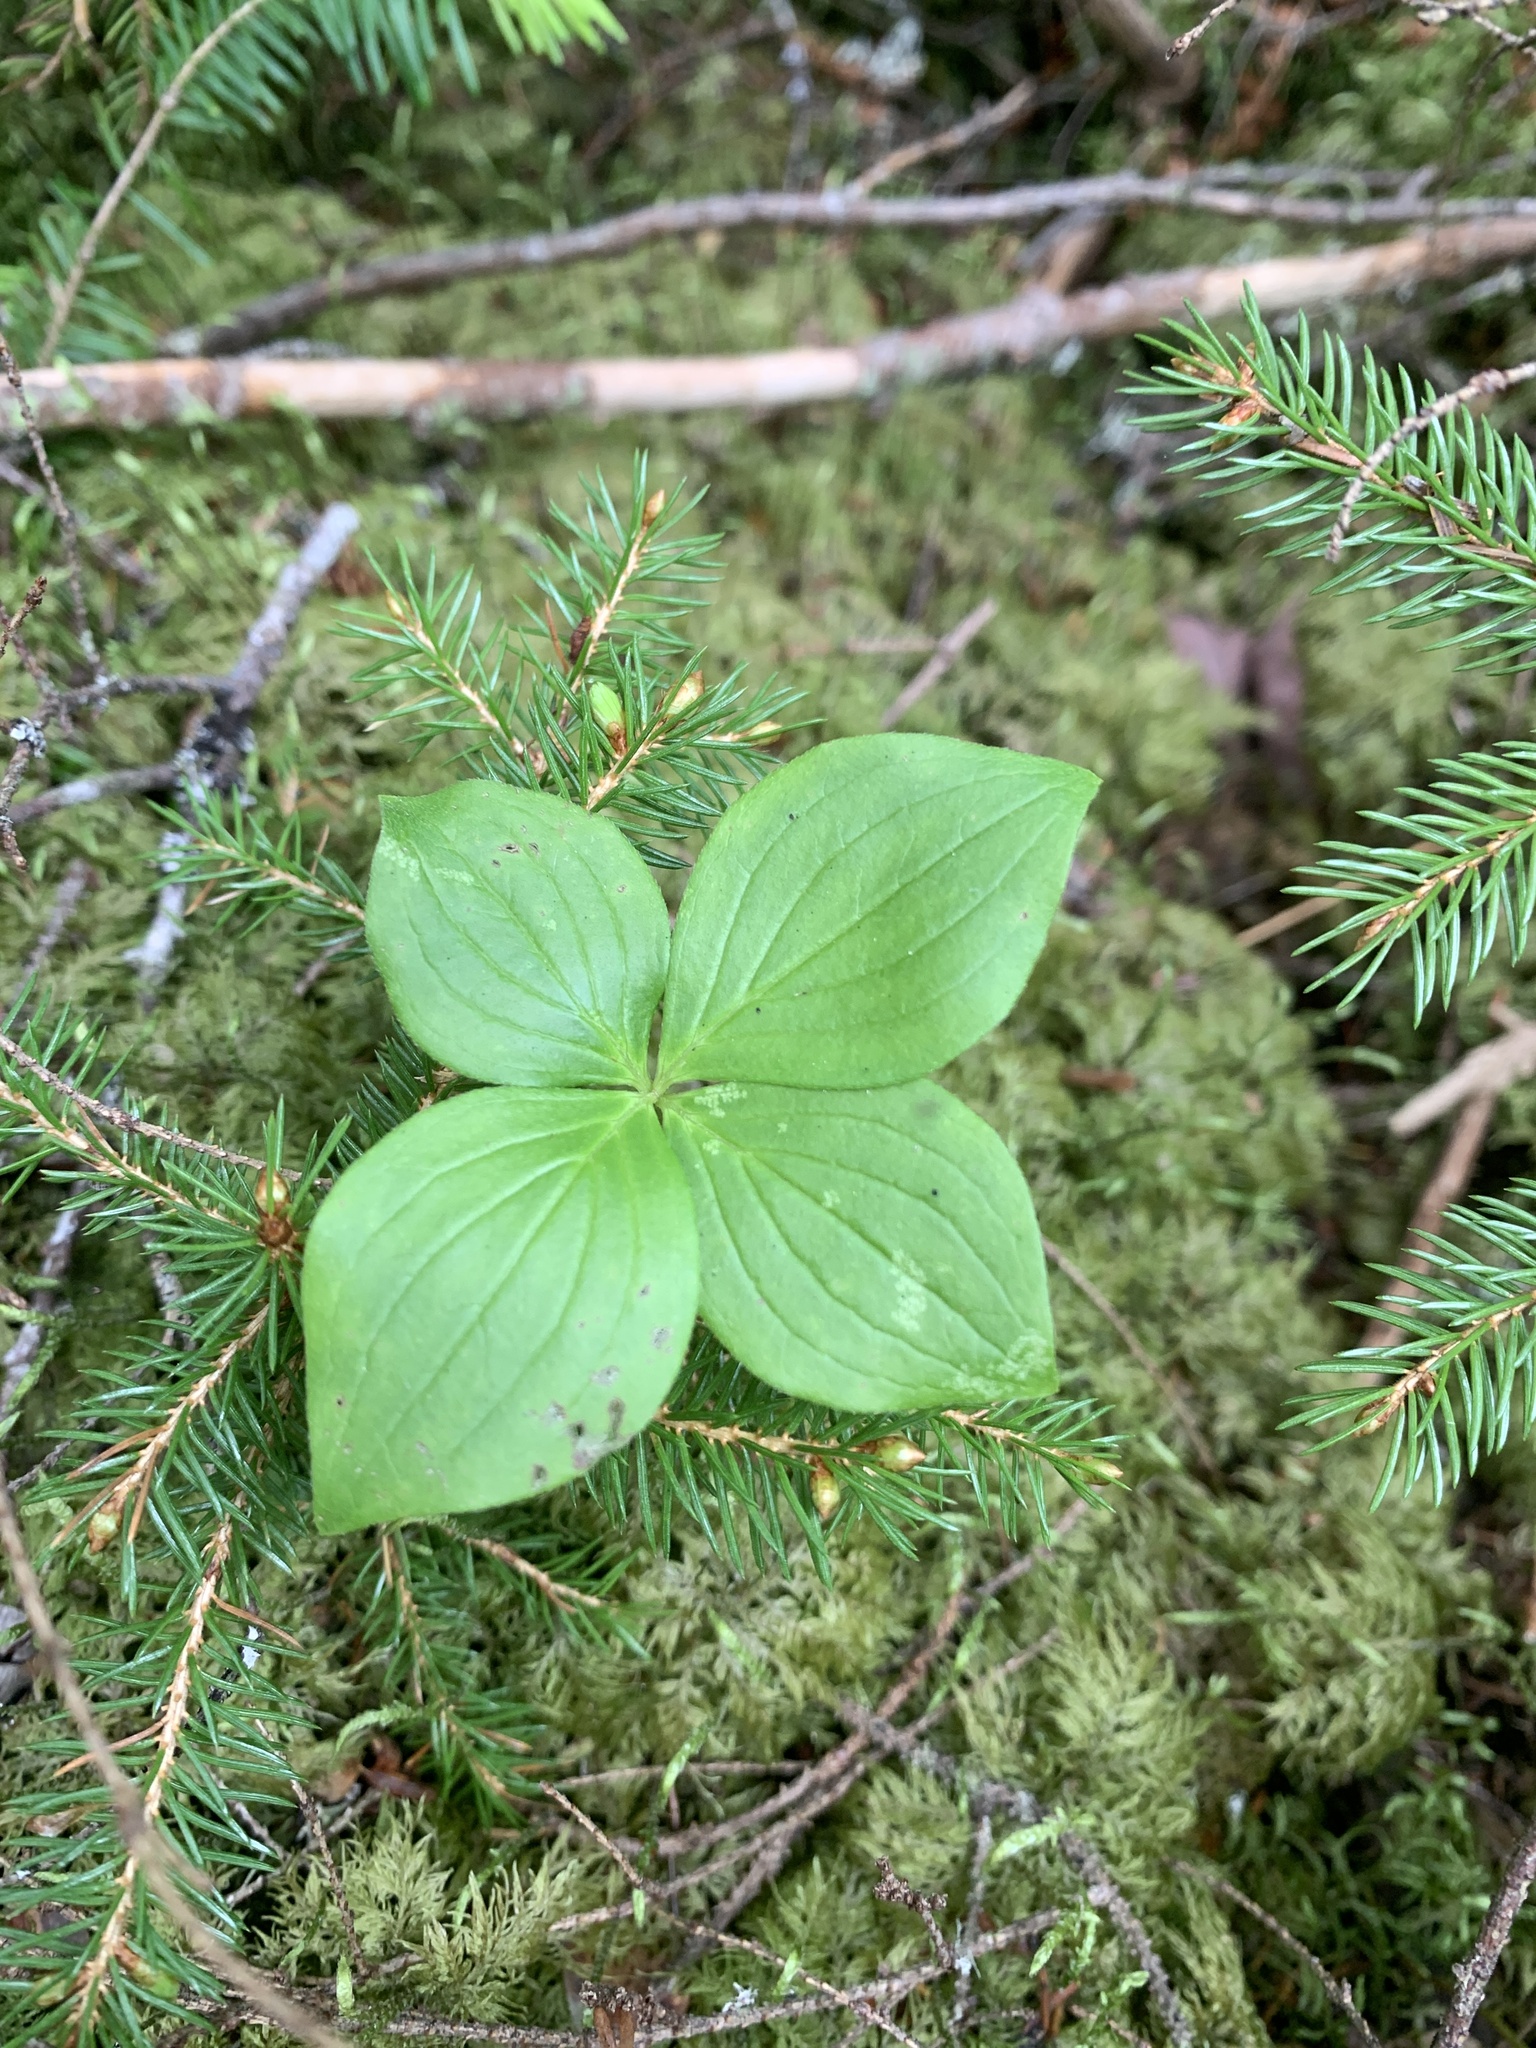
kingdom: Plantae
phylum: Tracheophyta
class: Magnoliopsida
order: Cornales
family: Cornaceae
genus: Cornus
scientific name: Cornus canadensis
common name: Creeping dogwood
